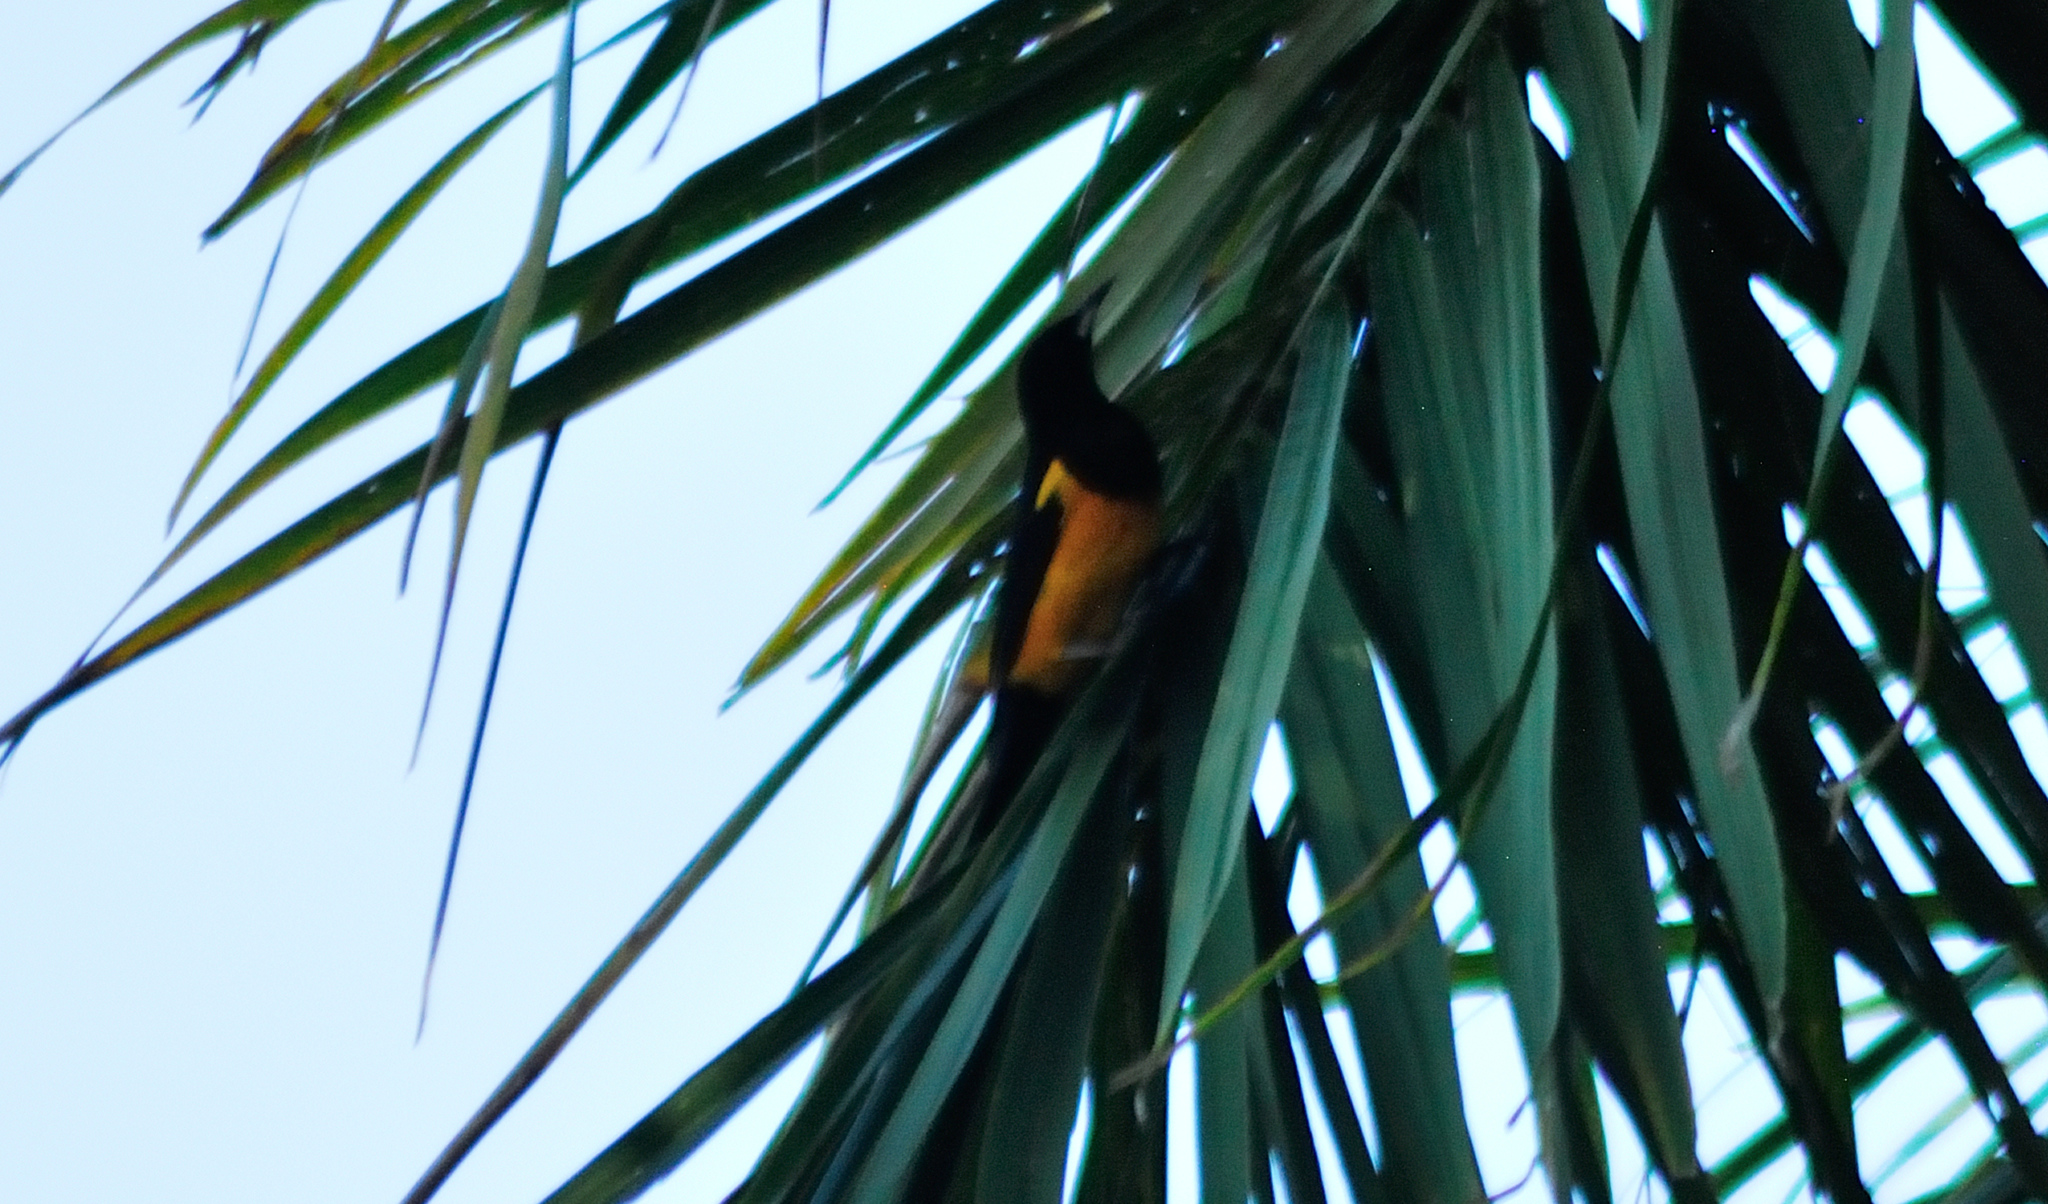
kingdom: Animalia
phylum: Chordata
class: Aves
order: Passeriformes
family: Icteridae
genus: Icterus
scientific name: Icterus wagleri
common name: Black-vented oriole
